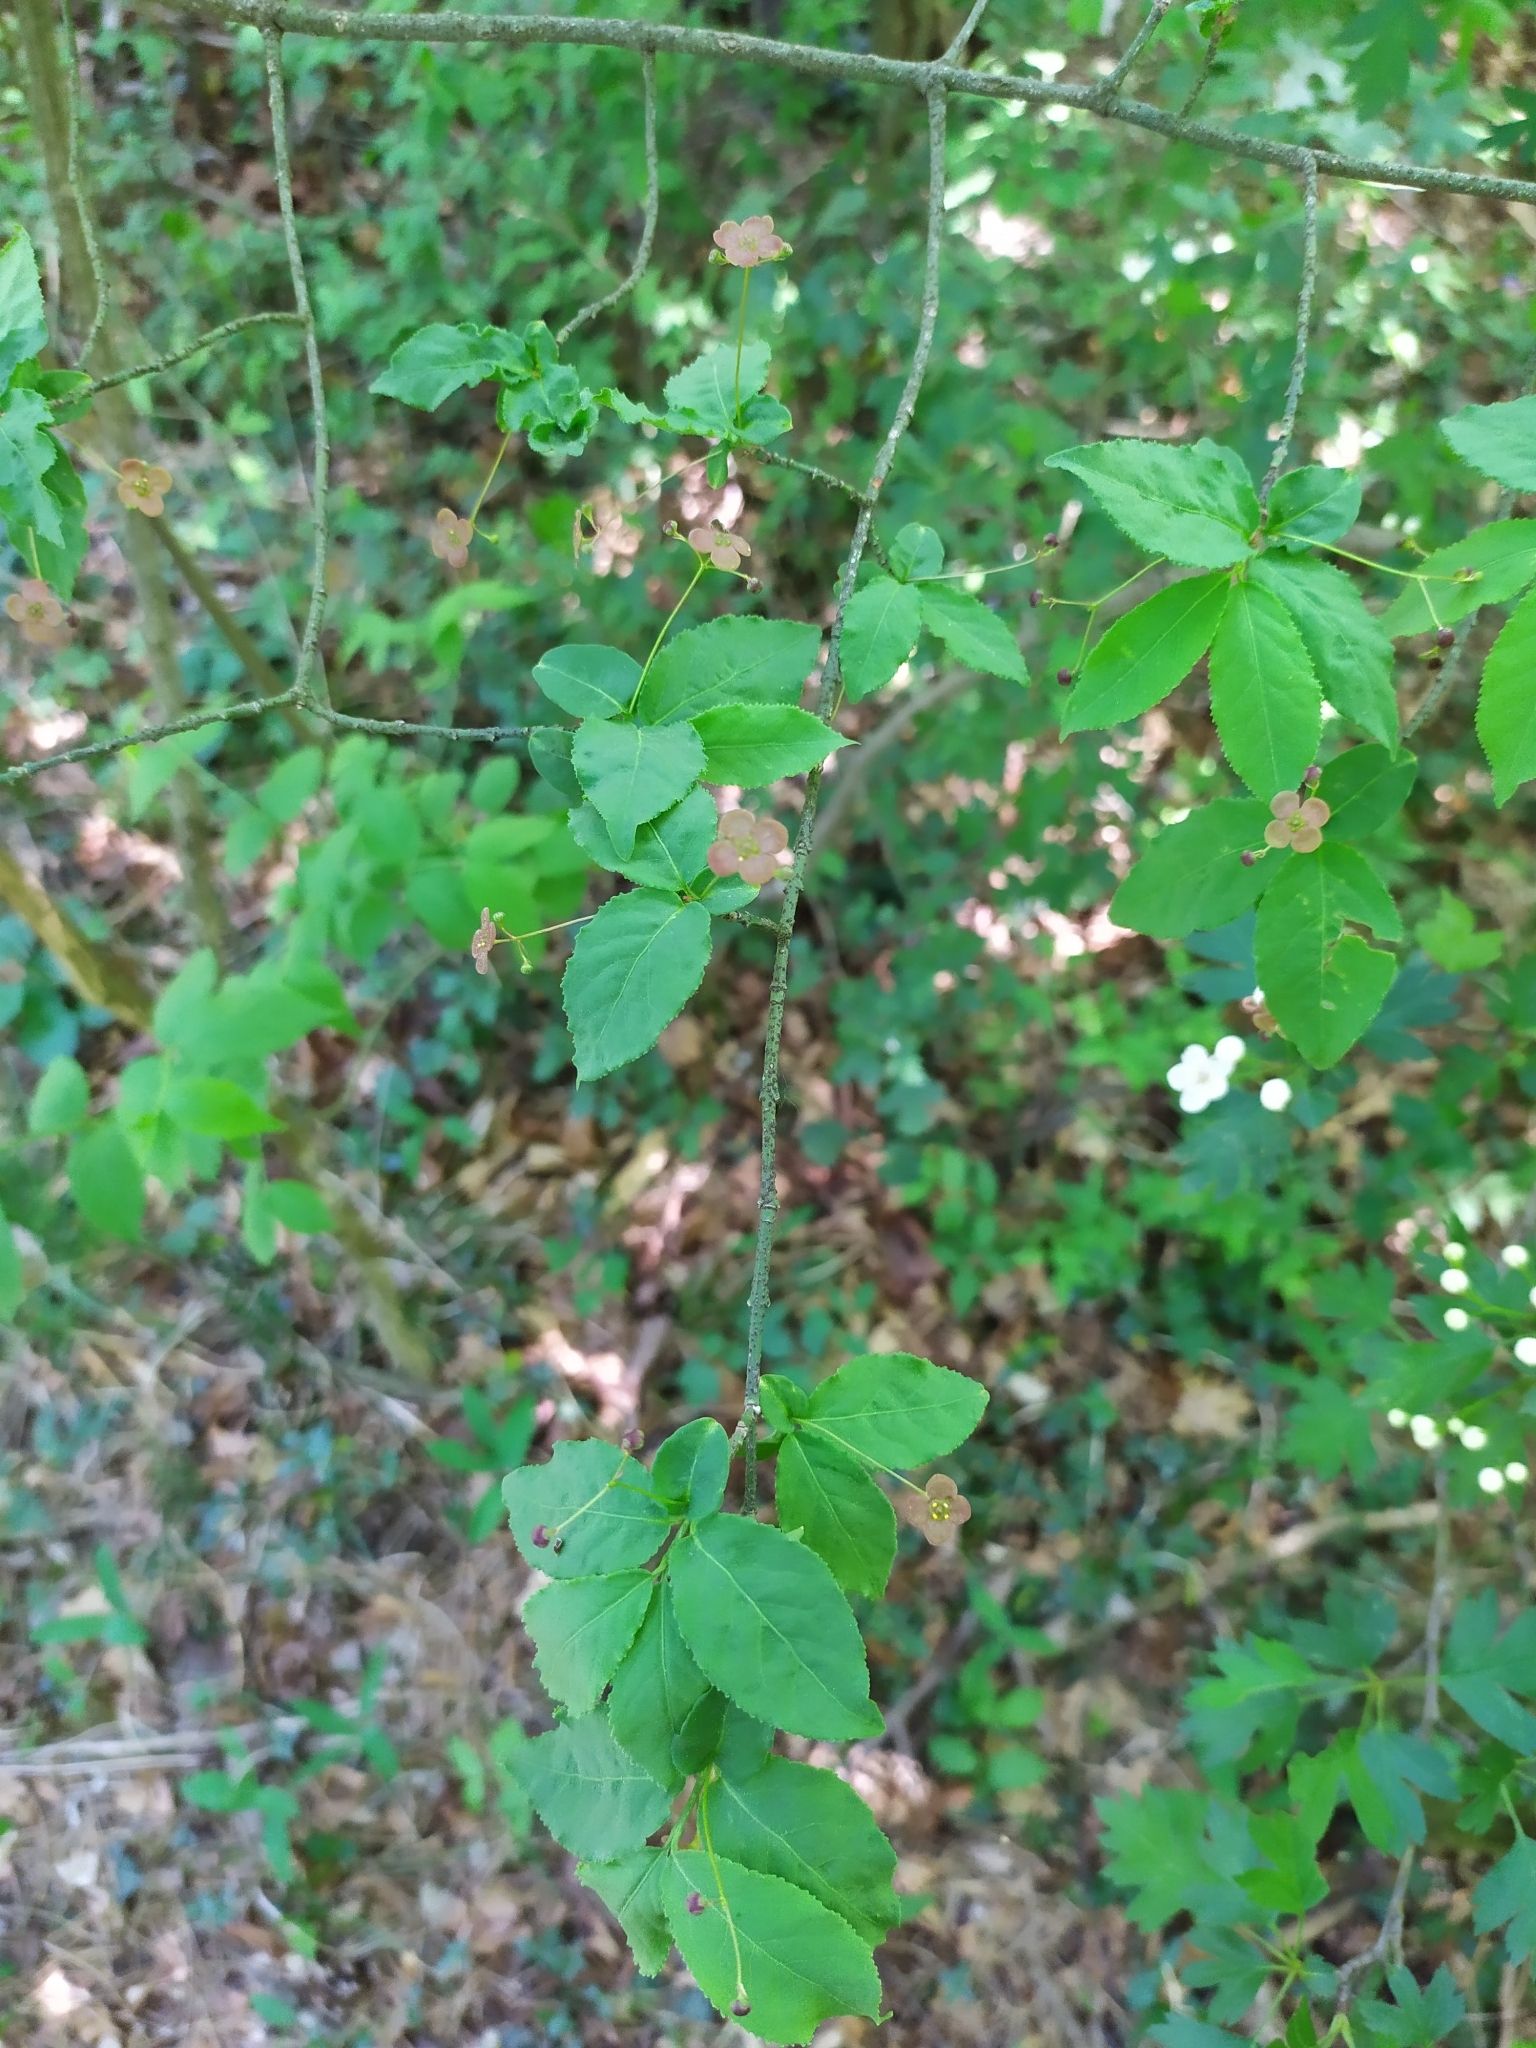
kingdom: Plantae
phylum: Tracheophyta
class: Magnoliopsida
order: Celastrales
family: Celastraceae
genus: Euonymus
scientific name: Euonymus verrucosus
